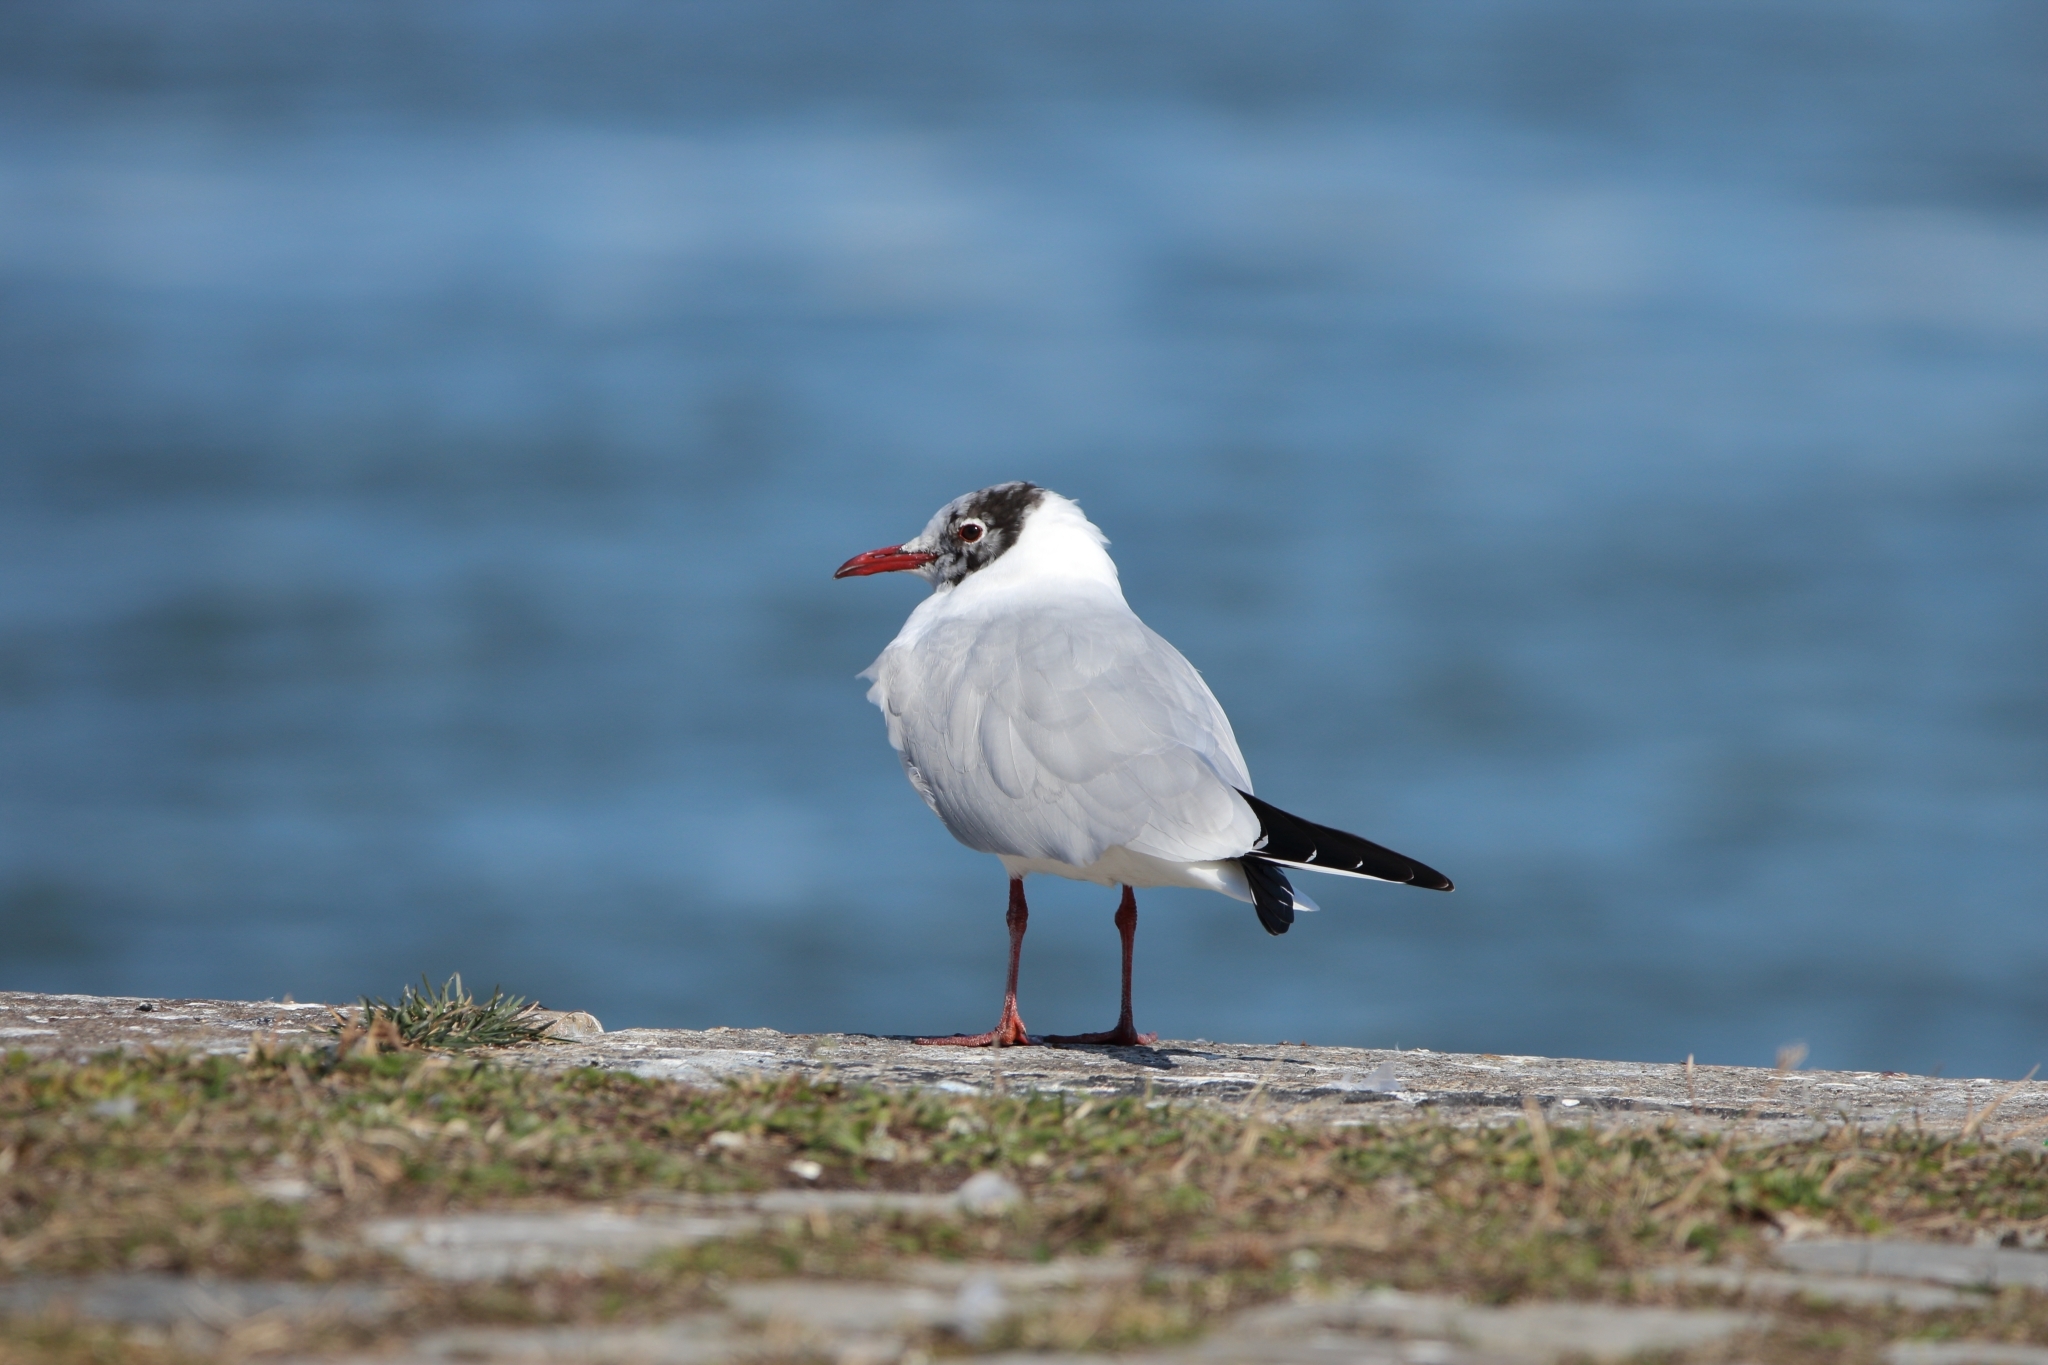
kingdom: Animalia
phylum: Chordata
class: Aves
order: Charadriiformes
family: Laridae
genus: Chroicocephalus
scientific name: Chroicocephalus ridibundus
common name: Black-headed gull
